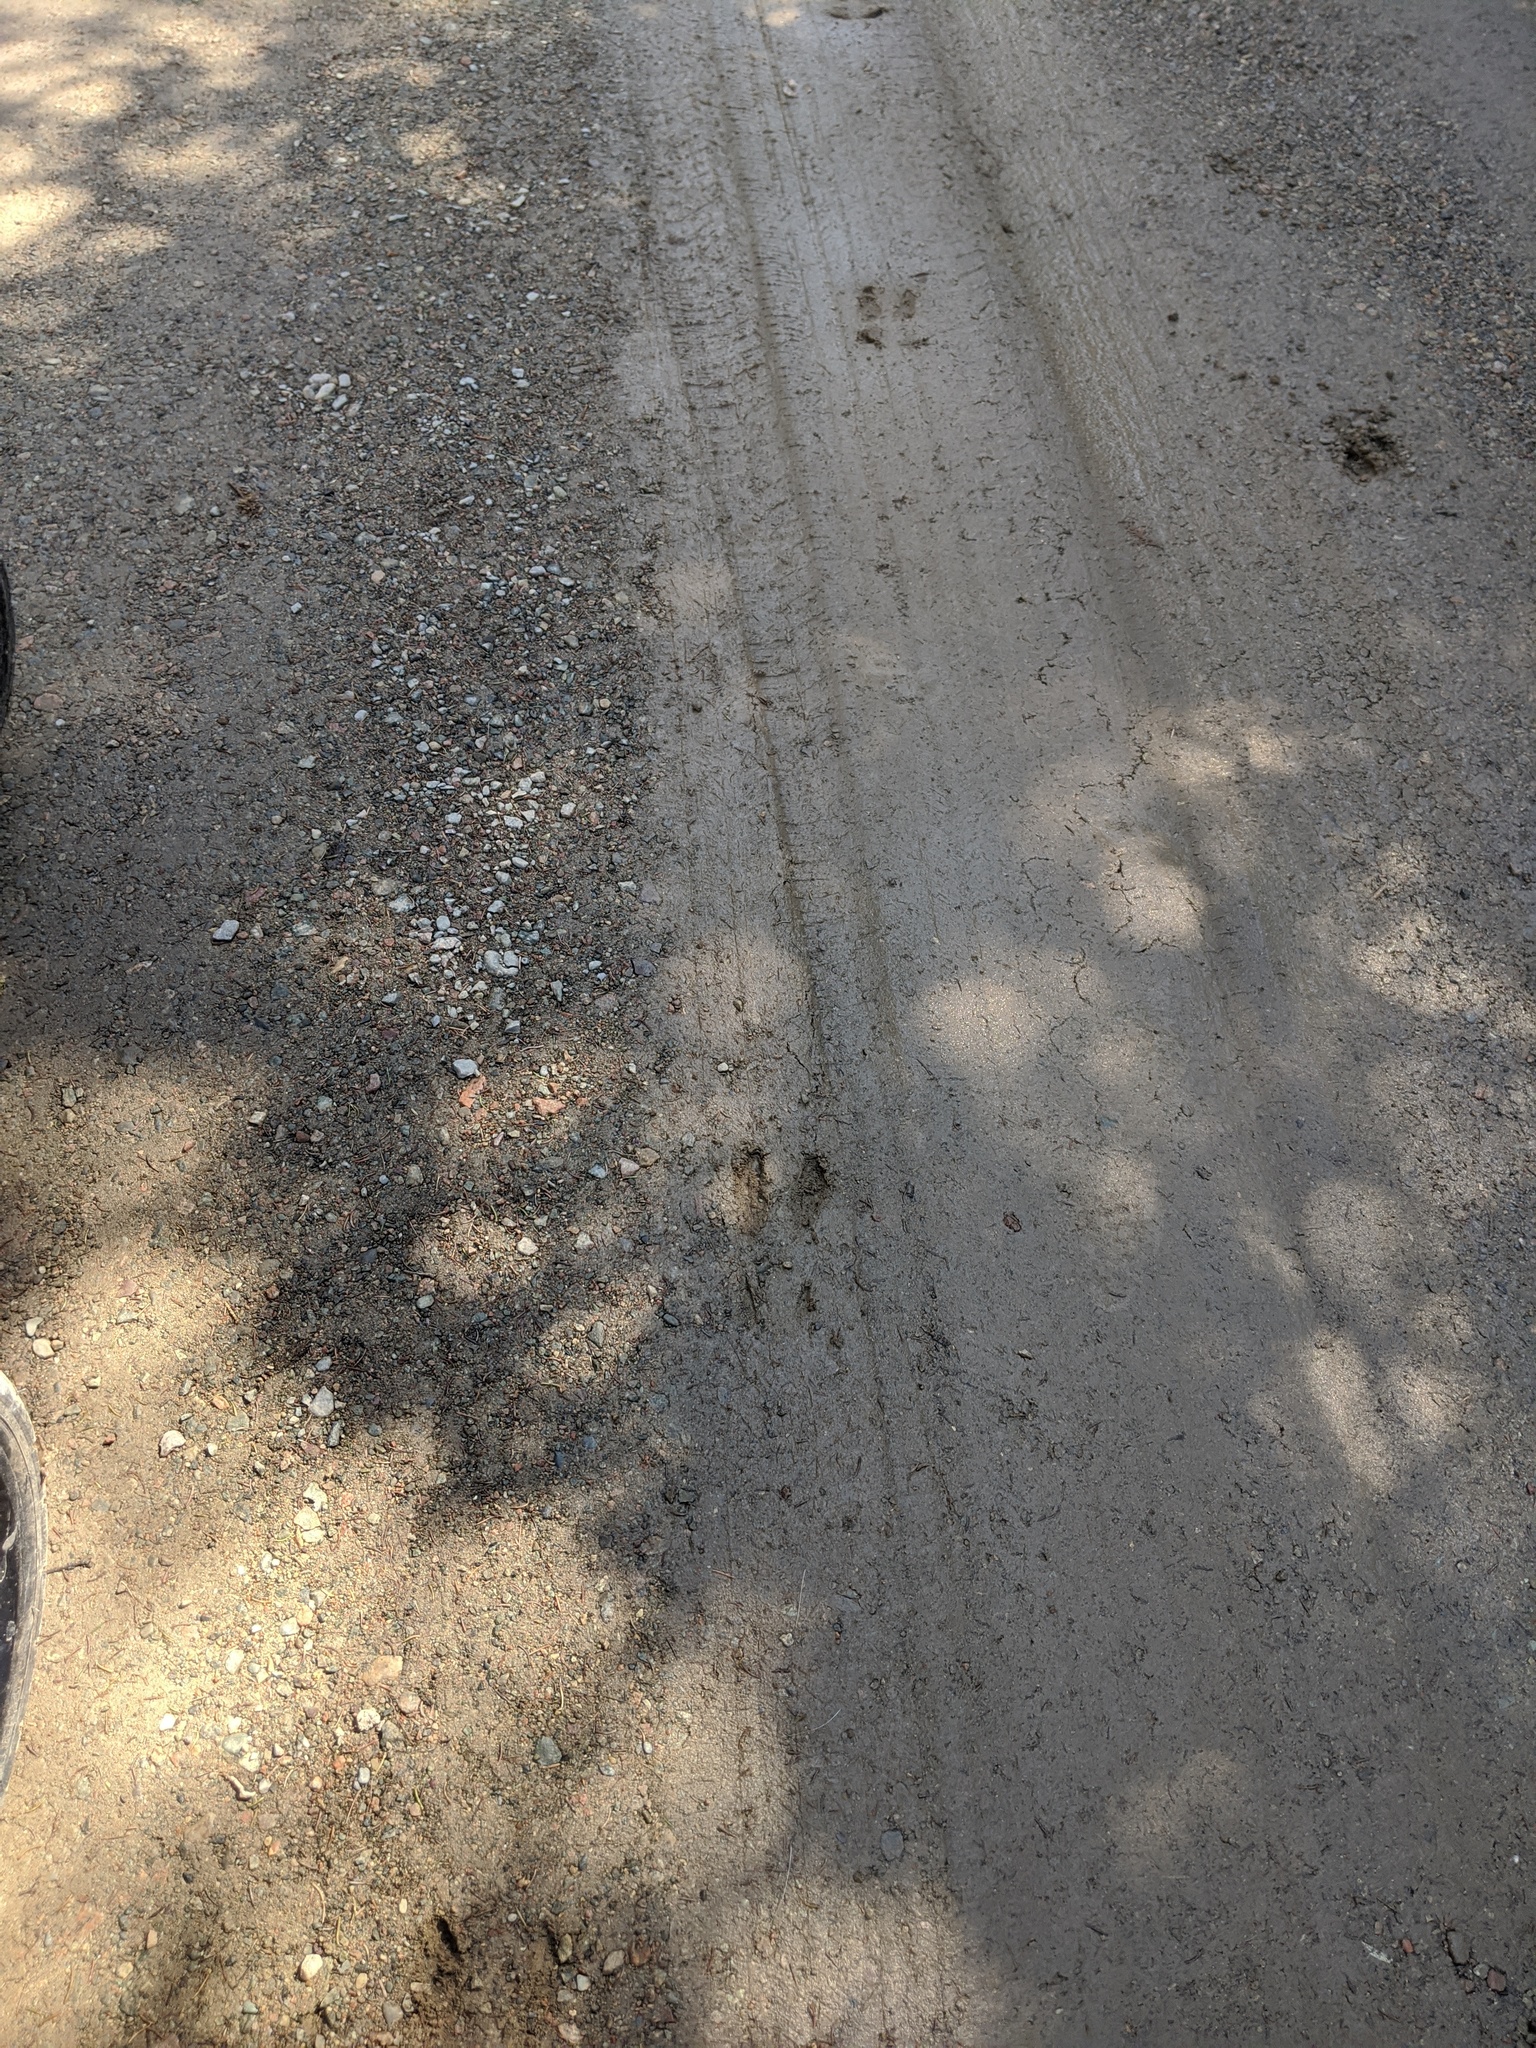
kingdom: Animalia
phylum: Chordata
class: Mammalia
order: Artiodactyla
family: Cervidae
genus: Odocoileus
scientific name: Odocoileus virginianus
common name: White-tailed deer
